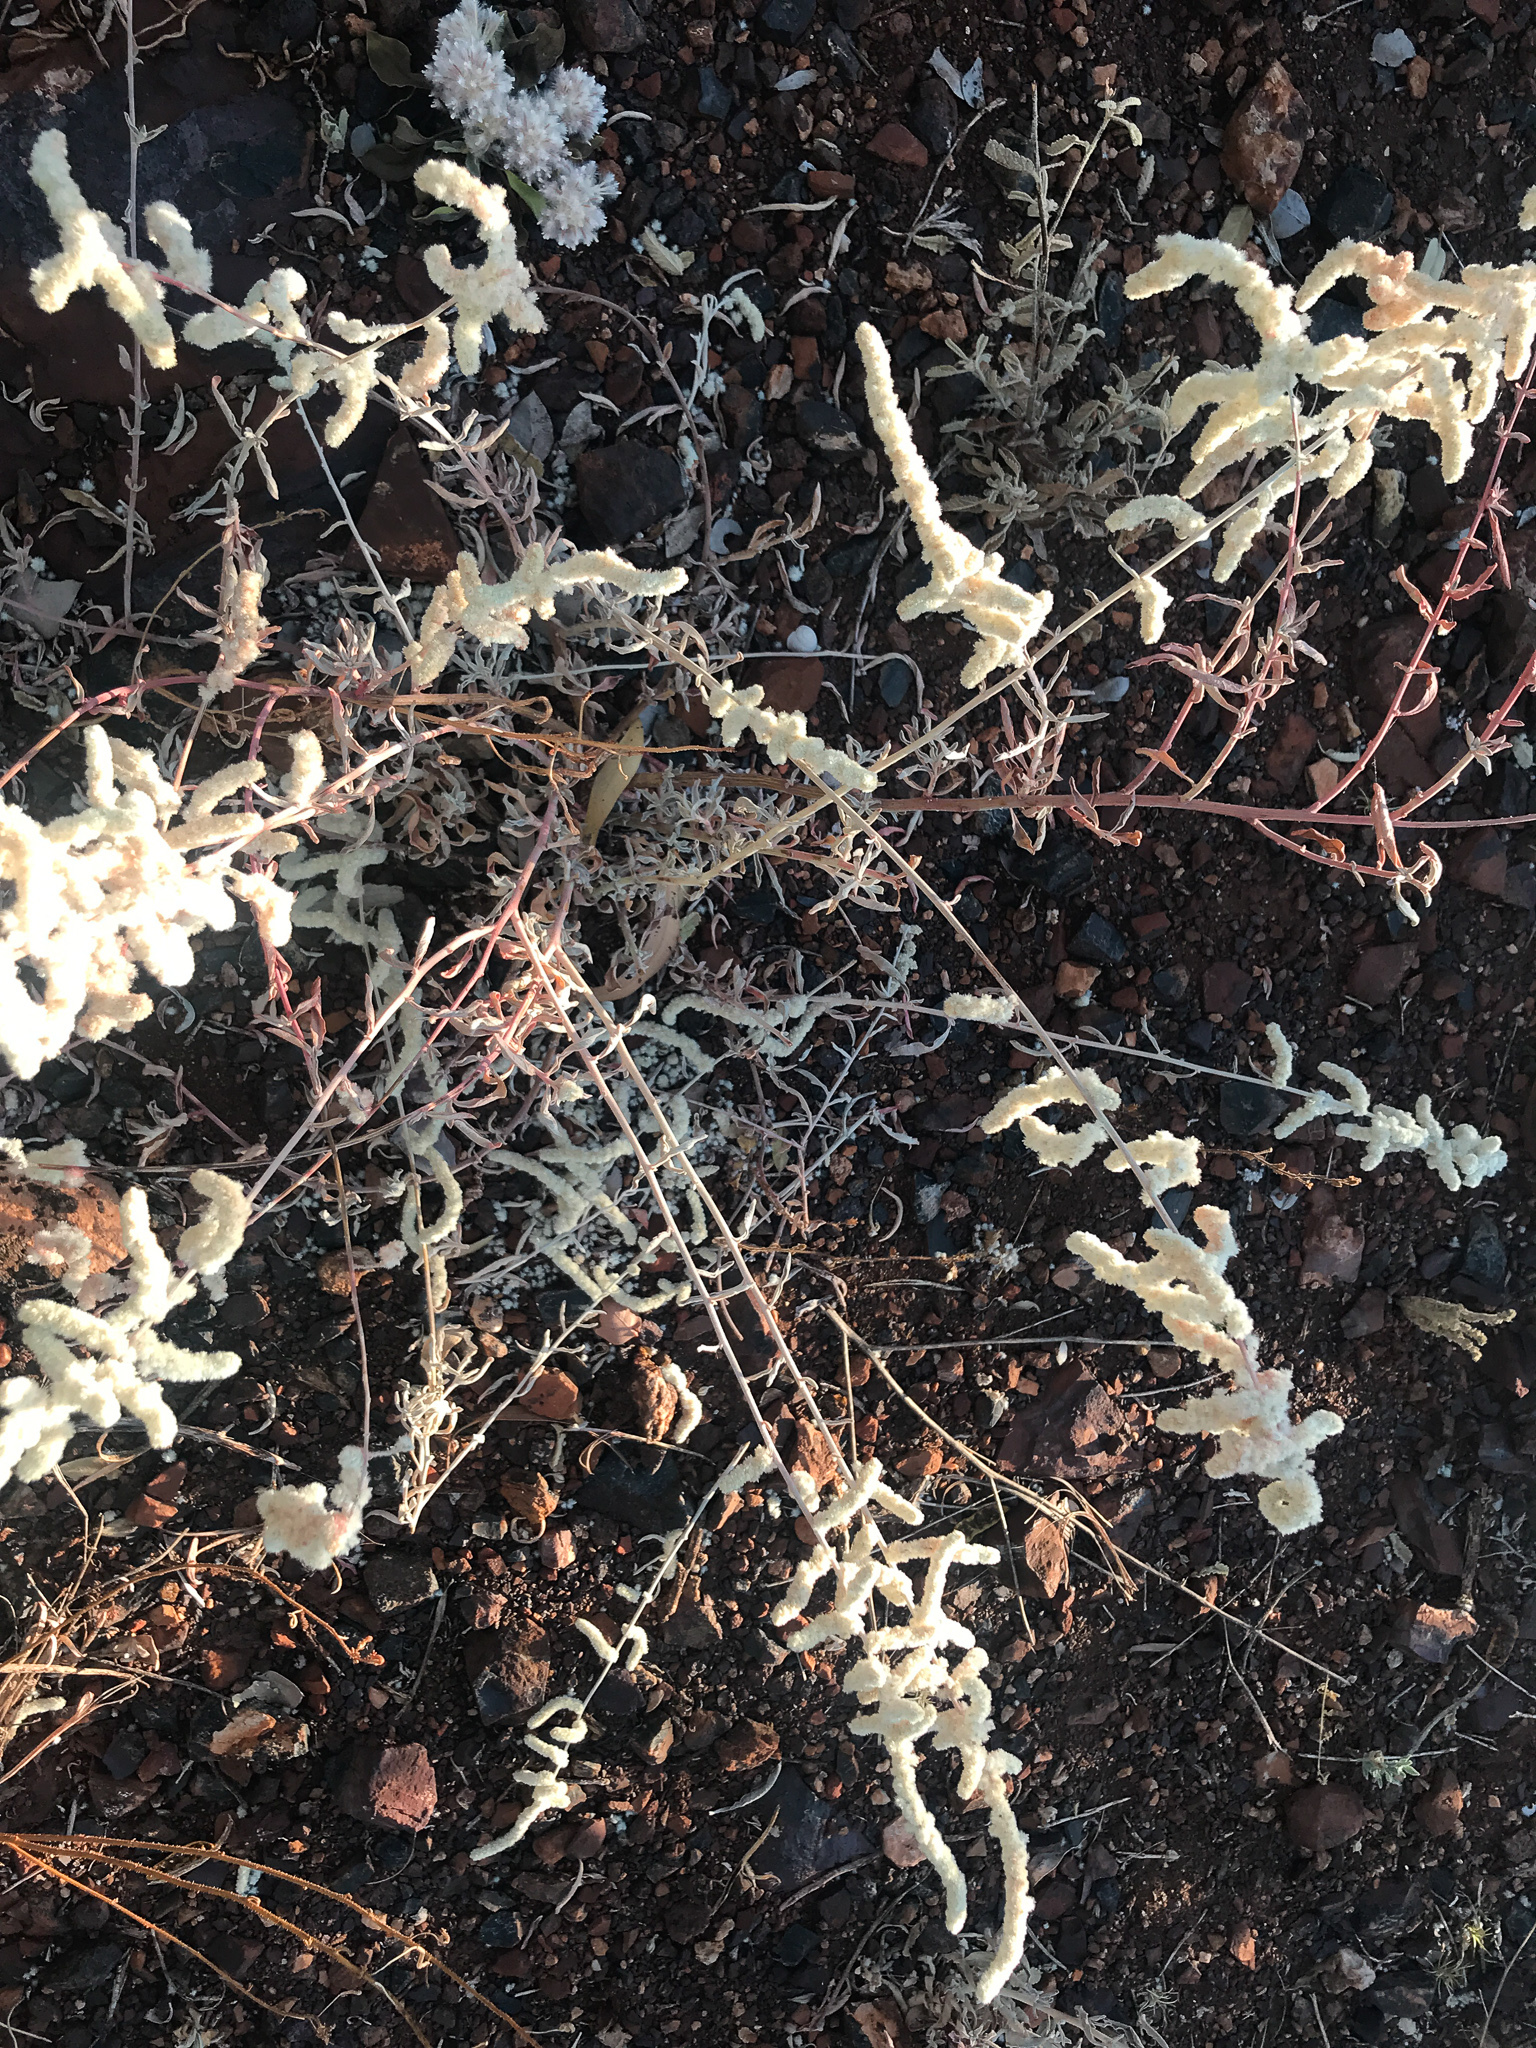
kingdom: Plantae
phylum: Tracheophyta
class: Magnoliopsida
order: Caryophyllales
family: Amaranthaceae
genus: Aerva
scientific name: Aerva javanica
